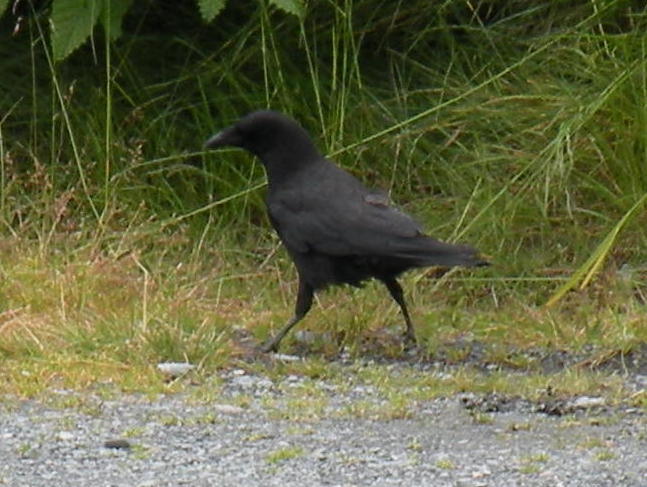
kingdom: Animalia
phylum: Chordata
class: Aves
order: Passeriformes
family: Corvidae
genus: Corvus
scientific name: Corvus brachyrhynchos
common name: American crow
